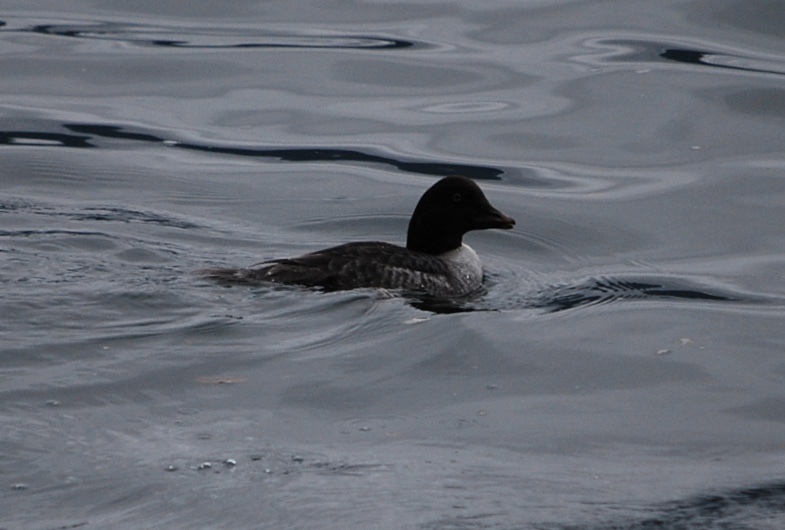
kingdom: Animalia
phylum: Chordata
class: Aves
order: Anseriformes
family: Anatidae
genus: Bucephala
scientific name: Bucephala islandica
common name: Barrow's goldeneye
